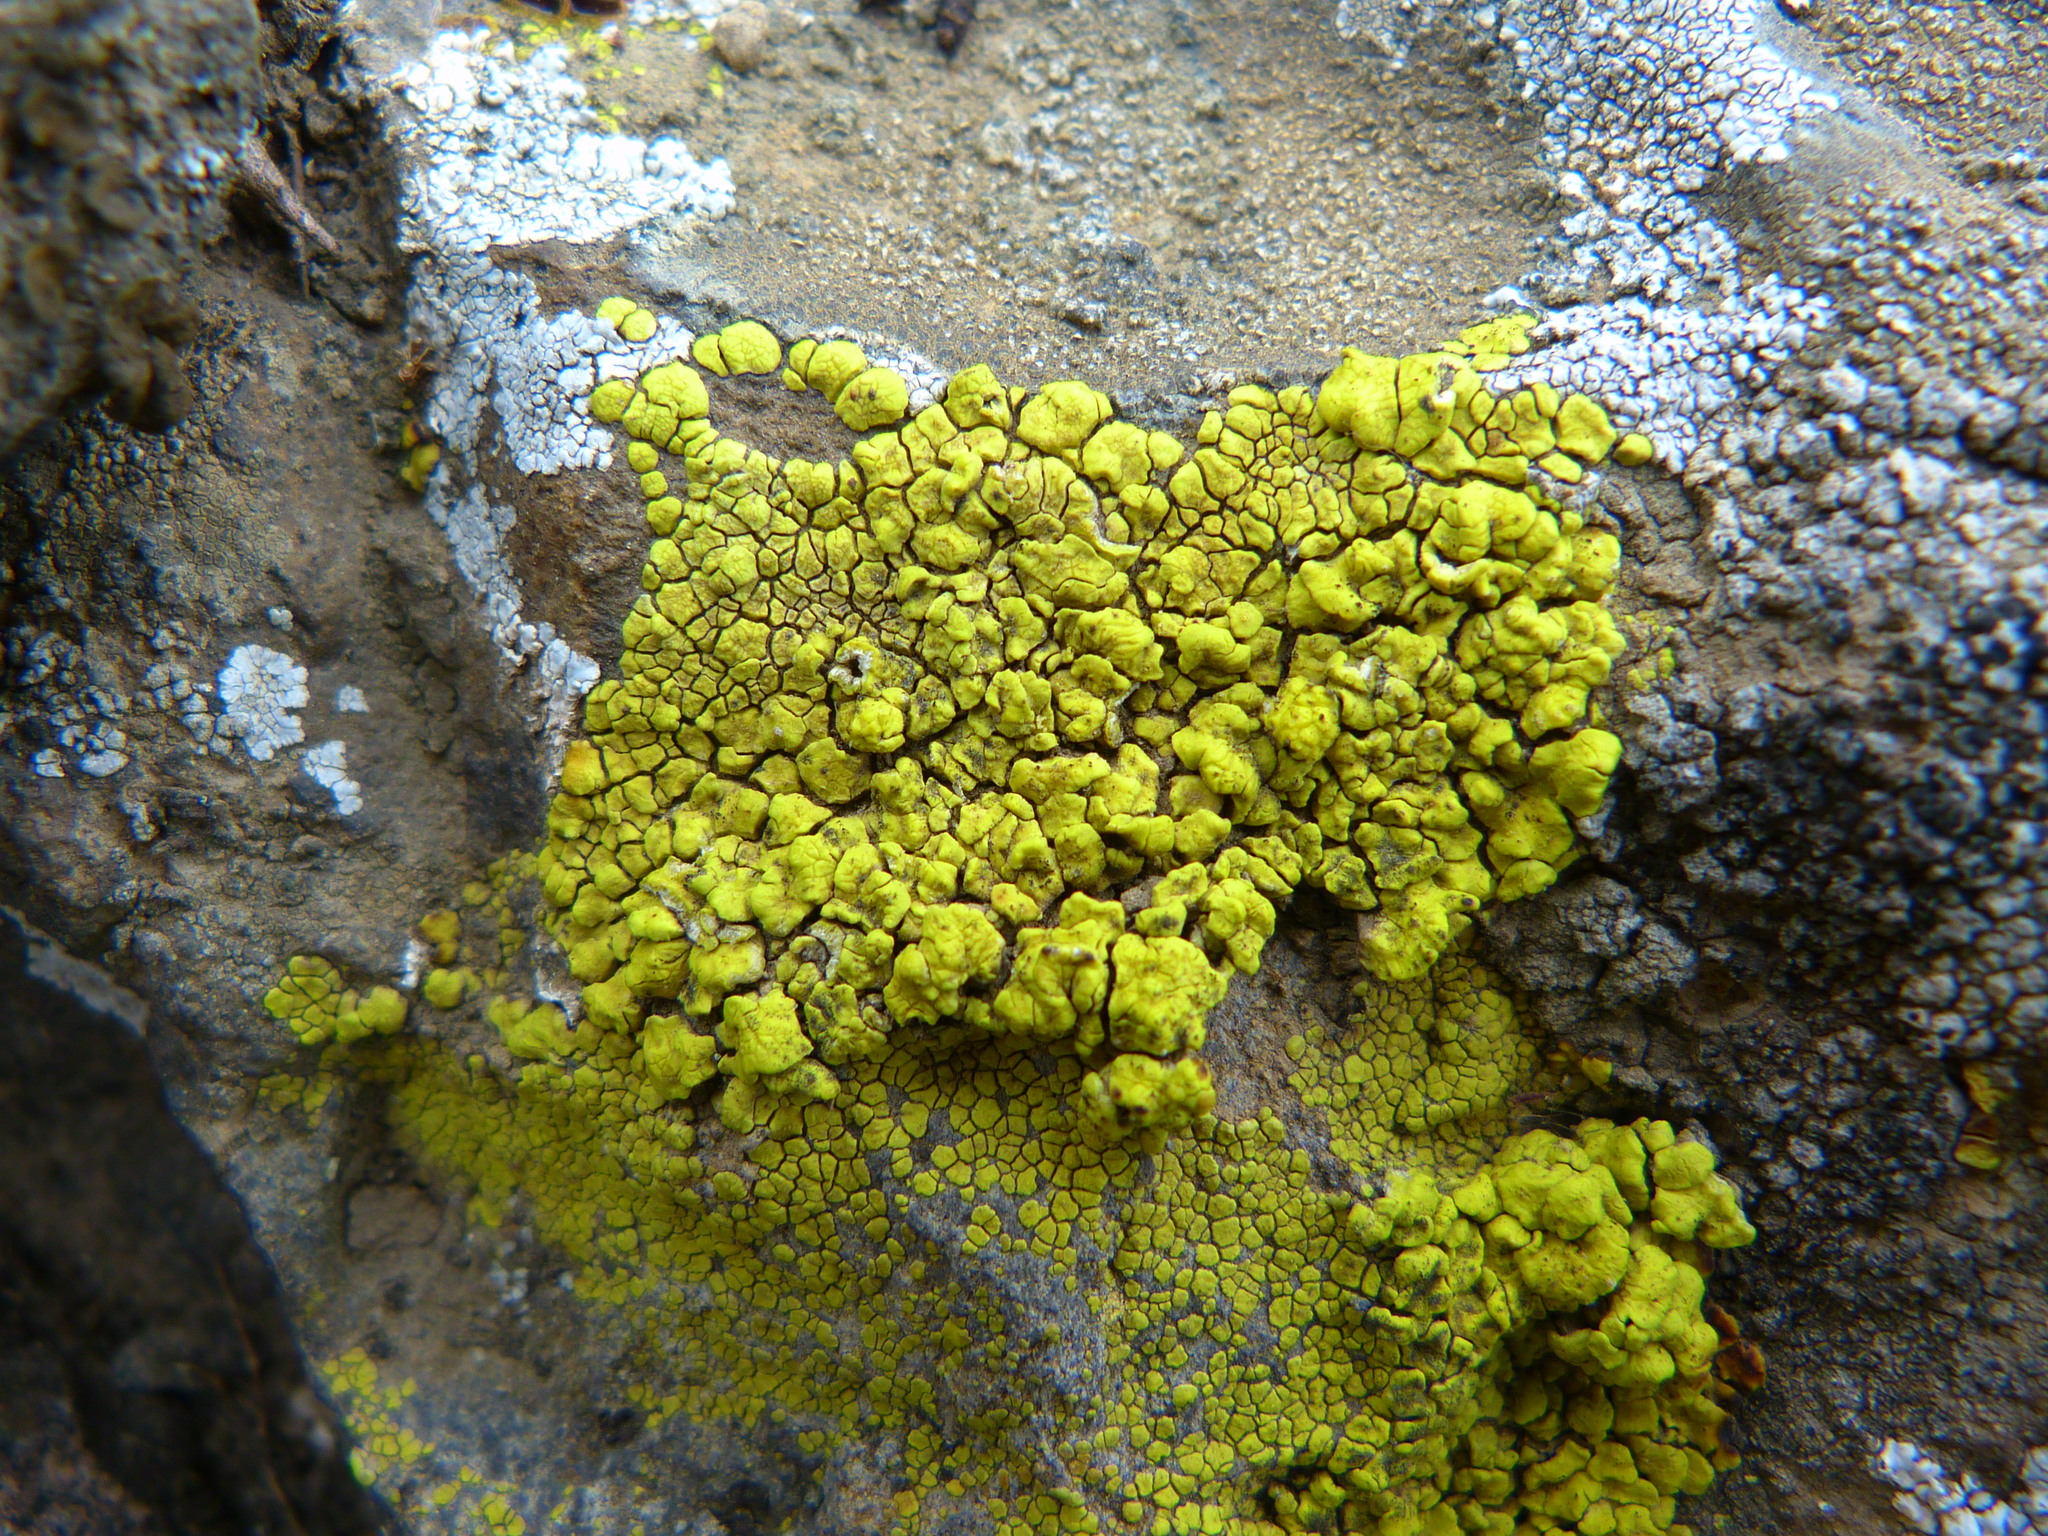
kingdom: Fungi
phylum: Ascomycota
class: Lecanoromycetes
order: Acarosporales
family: Acarosporaceae
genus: Acarospora
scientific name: Acarospora socialis
